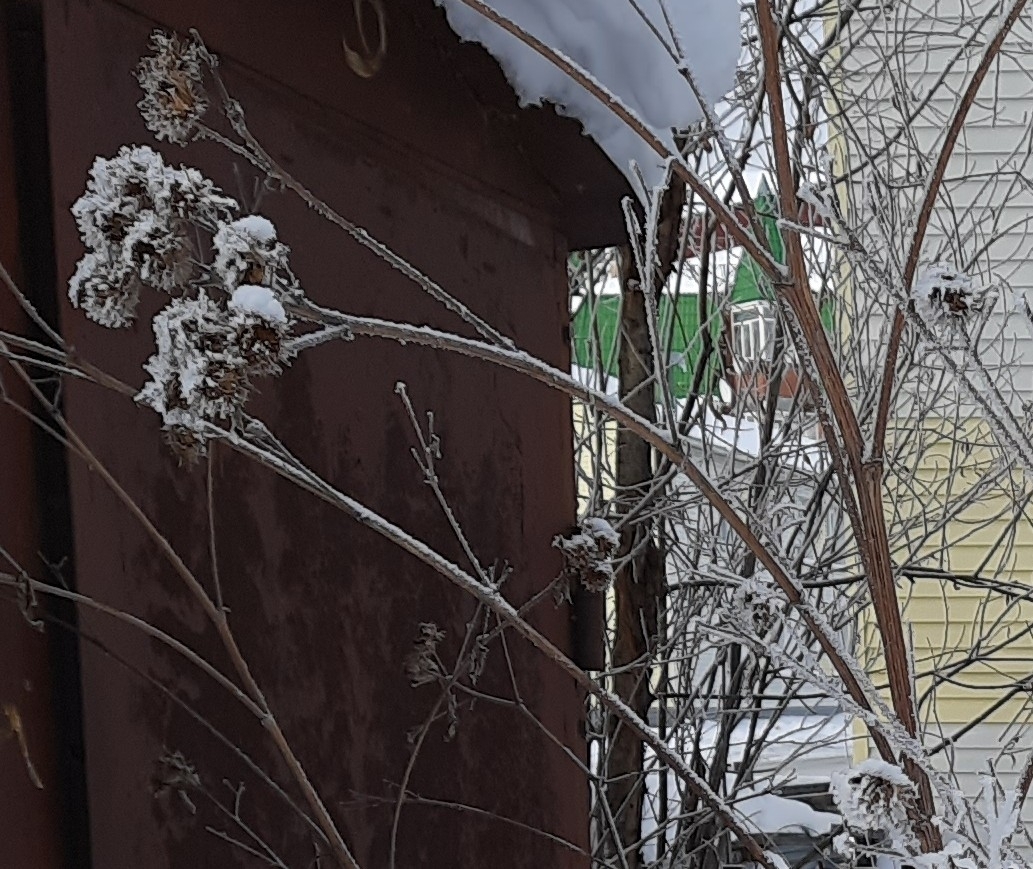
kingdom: Plantae
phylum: Tracheophyta
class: Magnoliopsida
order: Asterales
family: Asteraceae
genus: Arctium
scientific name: Arctium tomentosum
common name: Woolly burdock
